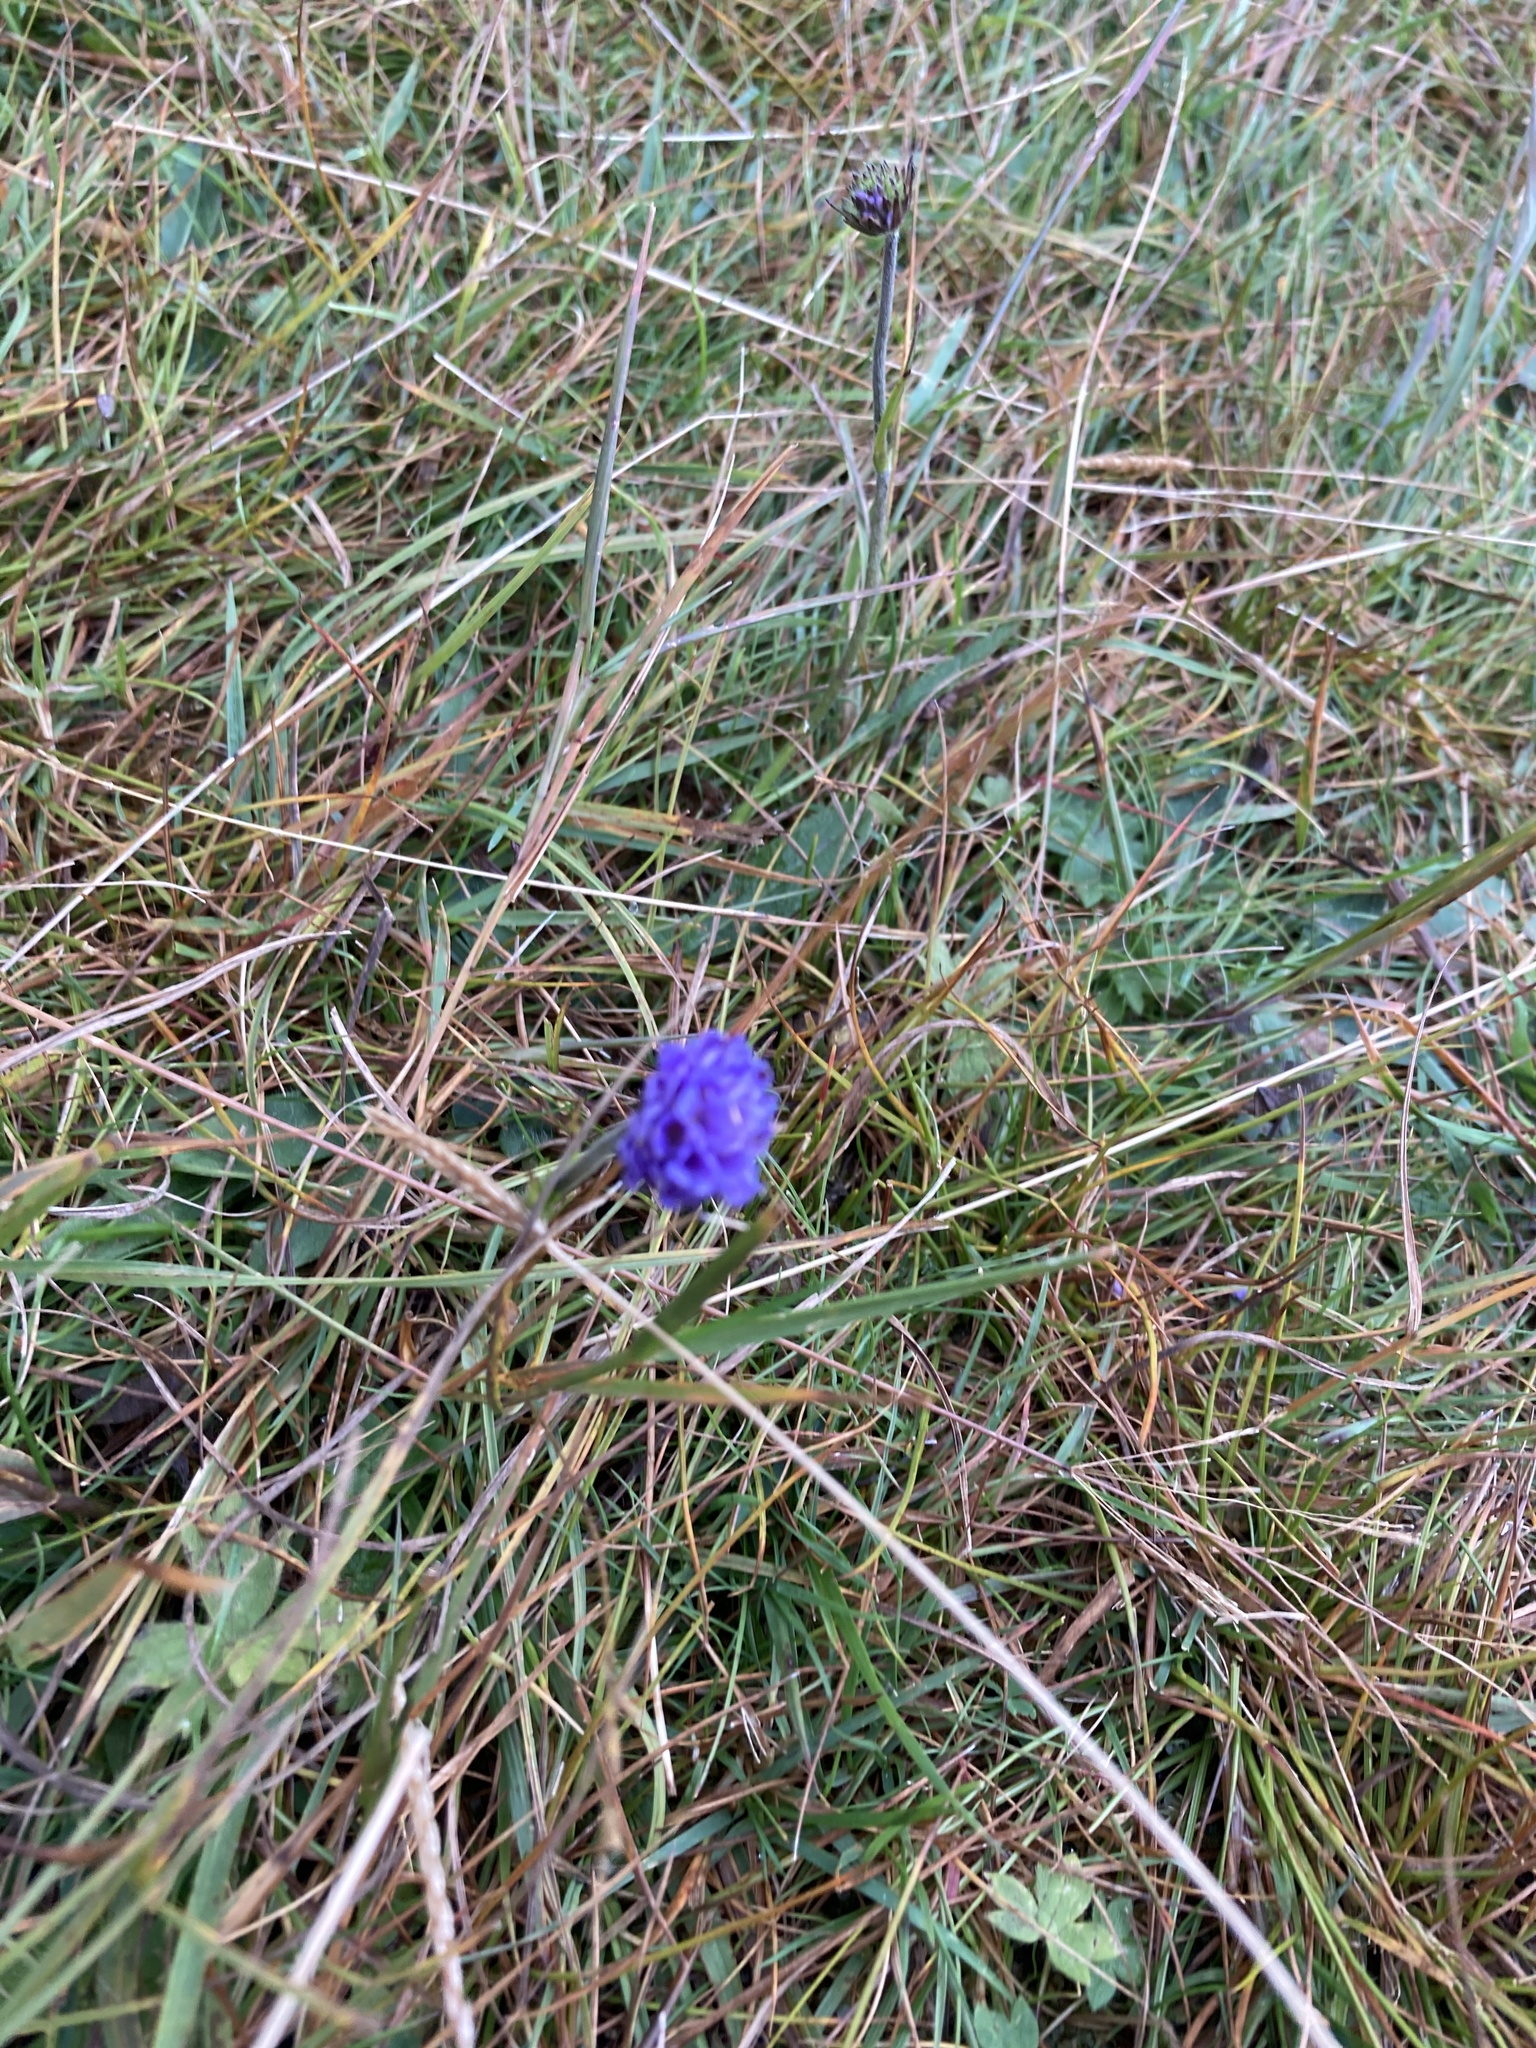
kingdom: Plantae
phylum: Tracheophyta
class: Magnoliopsida
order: Dipsacales
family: Caprifoliaceae
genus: Succisa
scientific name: Succisa pratensis
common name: Devil's-bit
